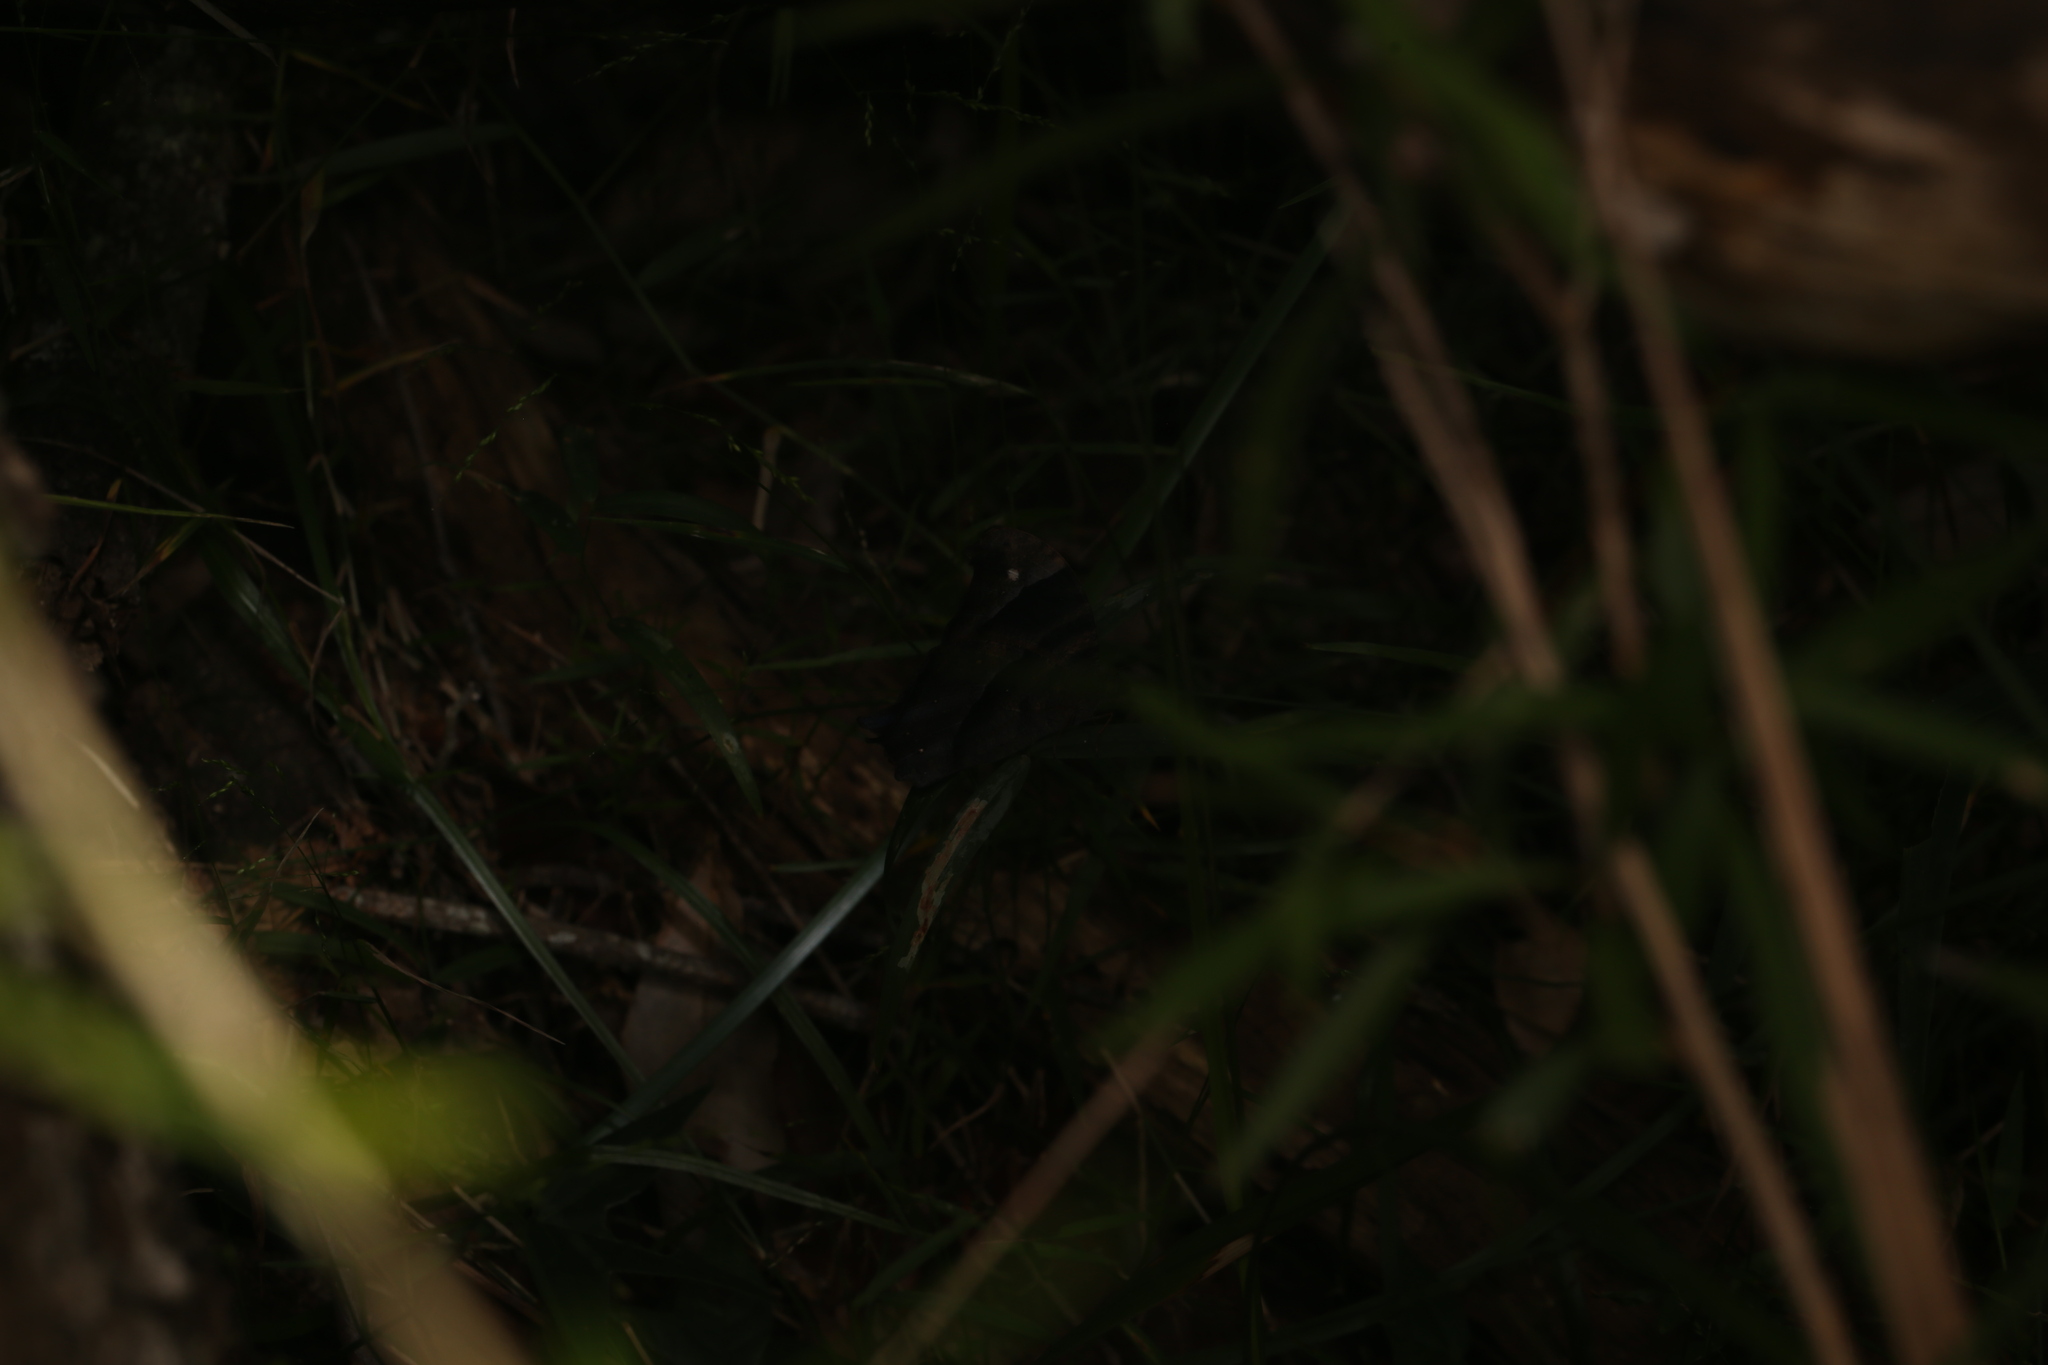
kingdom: Animalia
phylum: Arthropoda
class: Insecta
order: Lepidoptera
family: Nymphalidae
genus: Melanitis
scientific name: Melanitis leda
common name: Twilight brown
